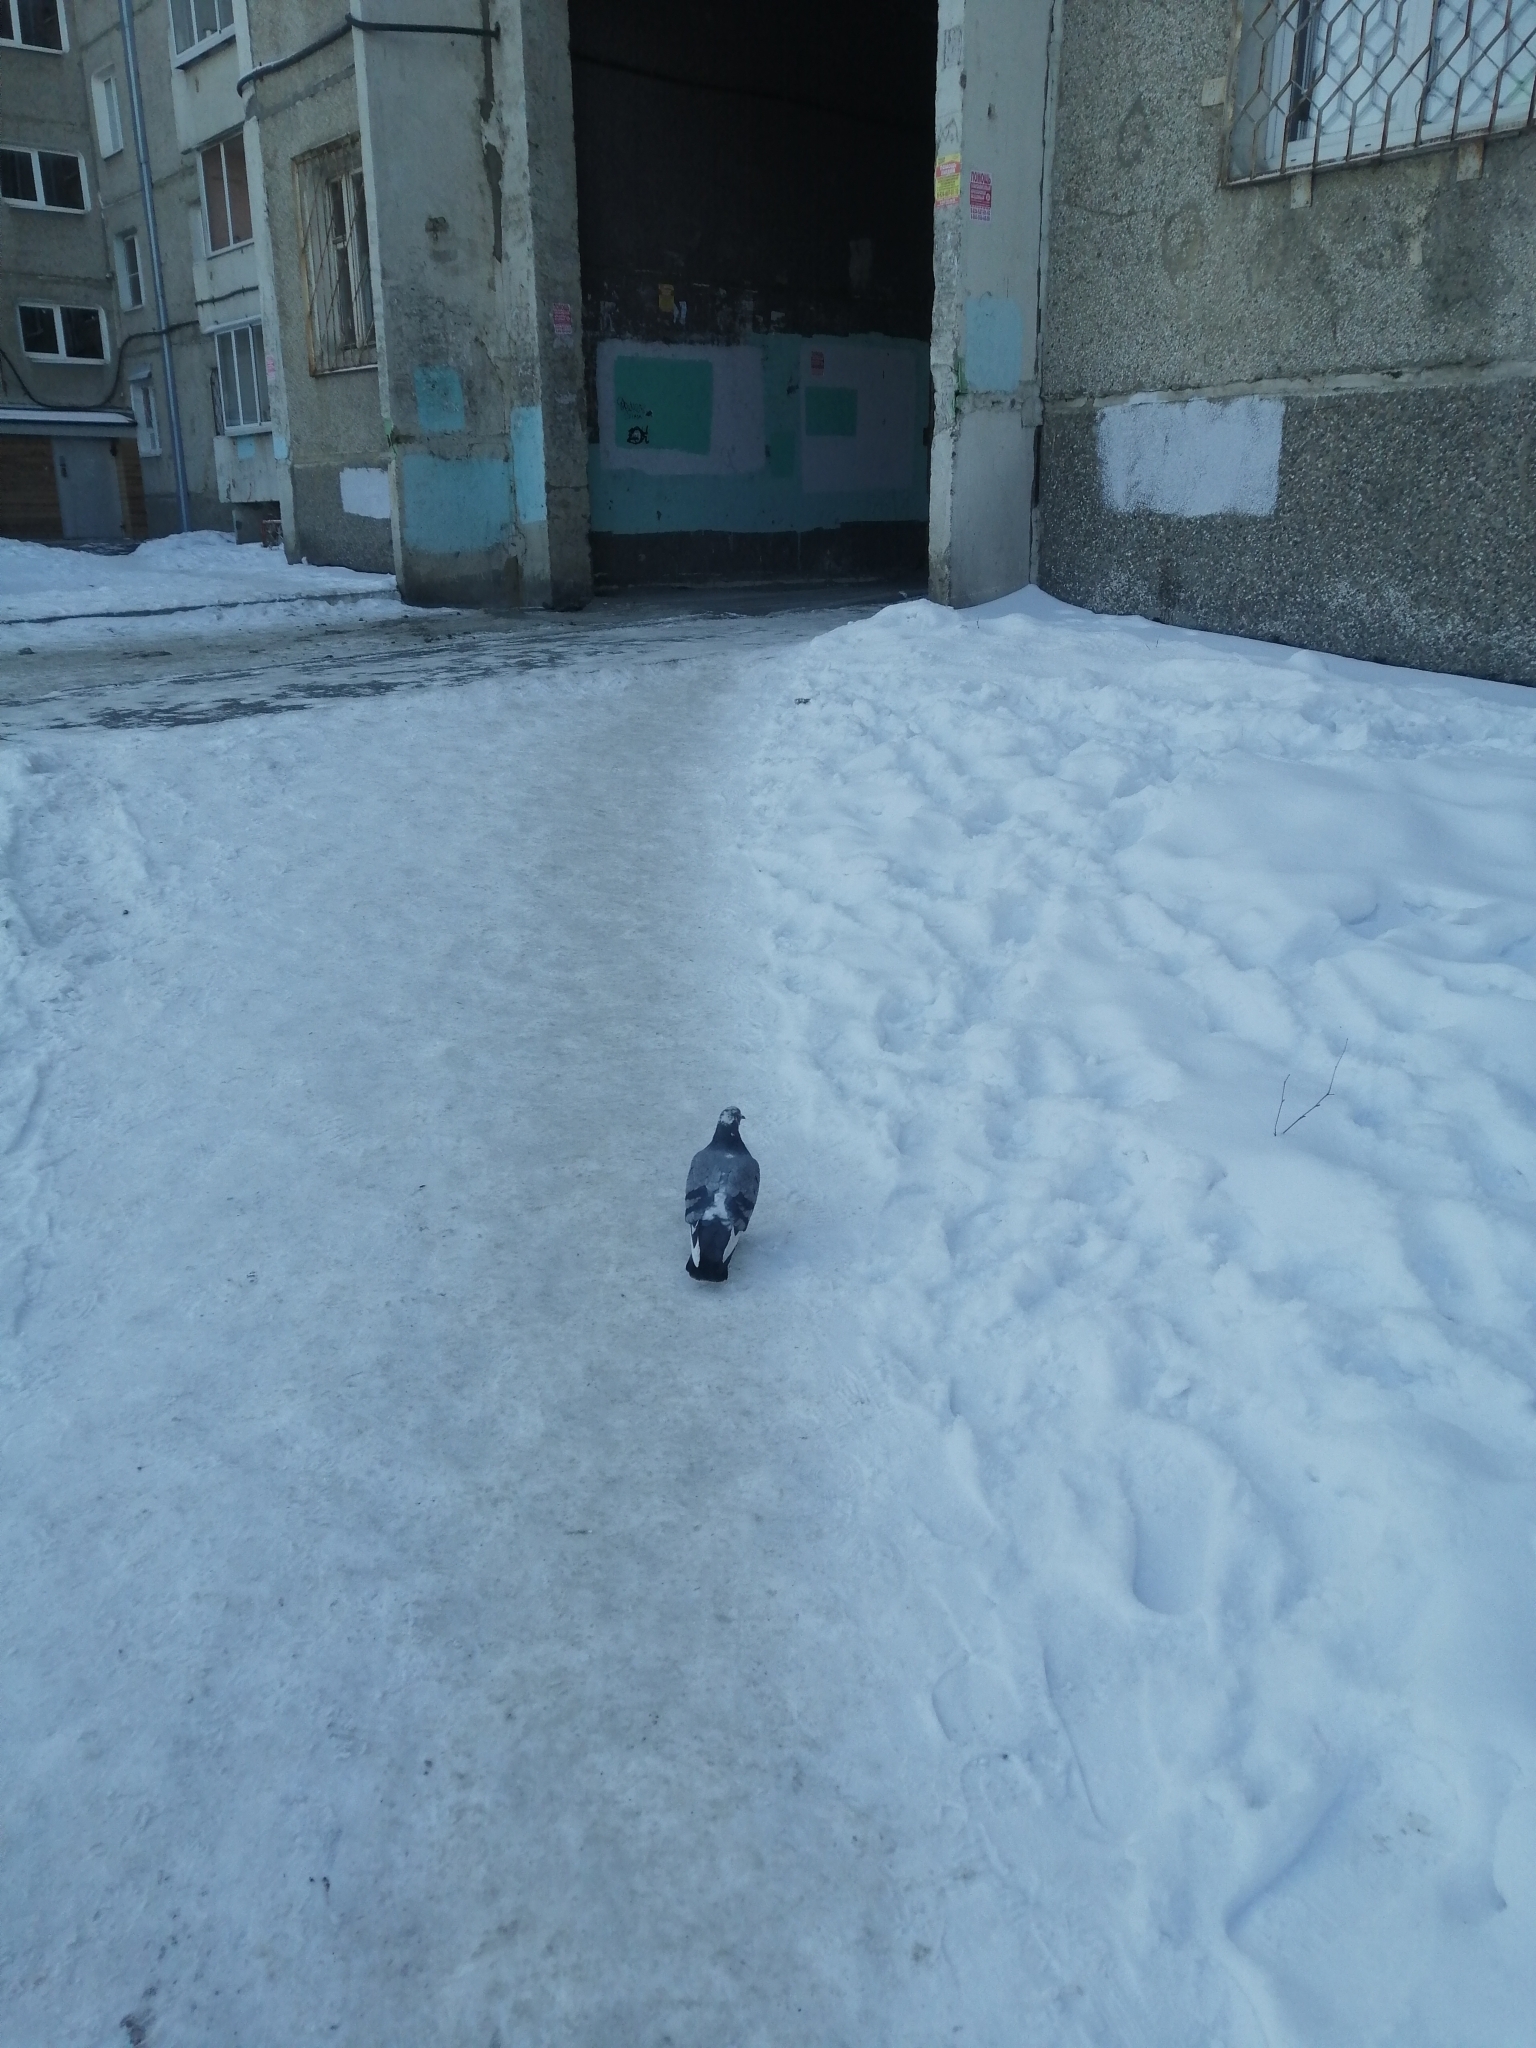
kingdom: Animalia
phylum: Chordata
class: Aves
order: Columbiformes
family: Columbidae
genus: Columba
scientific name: Columba livia
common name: Rock pigeon
